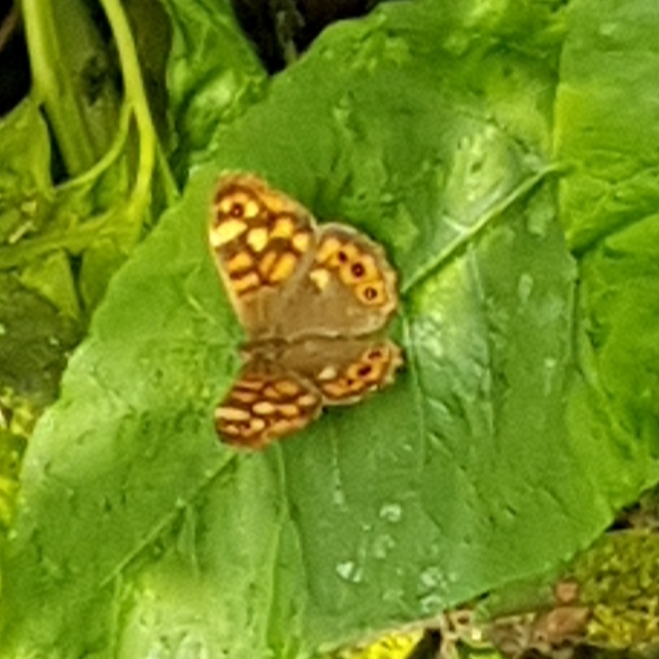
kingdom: Animalia
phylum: Arthropoda
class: Insecta
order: Lepidoptera
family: Nymphalidae
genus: Pararge
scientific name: Pararge aegeria
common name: Speckled wood
